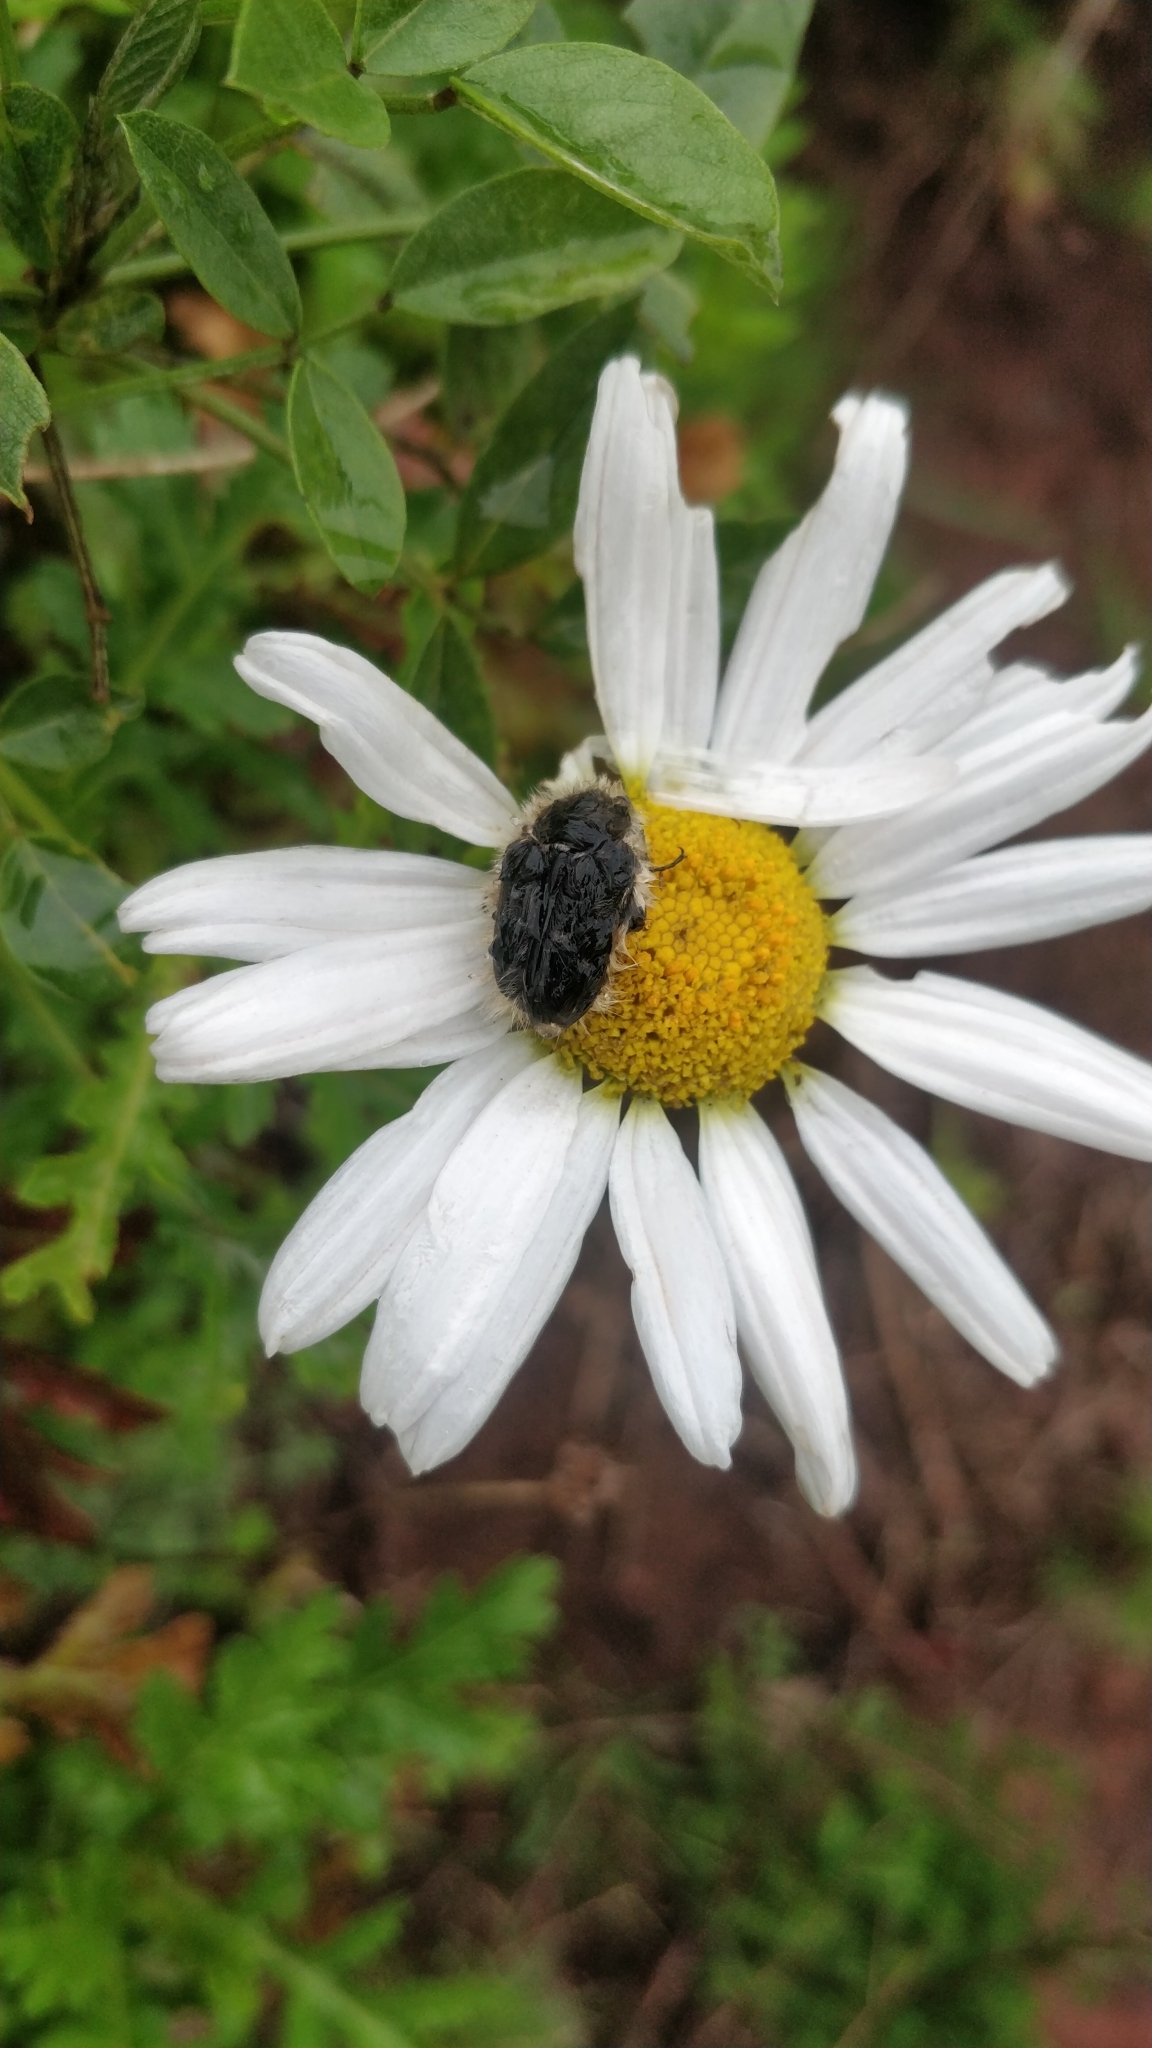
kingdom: Animalia
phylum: Arthropoda
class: Insecta
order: Coleoptera
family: Scarabaeidae
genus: Tropinota
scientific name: Tropinota squalida
